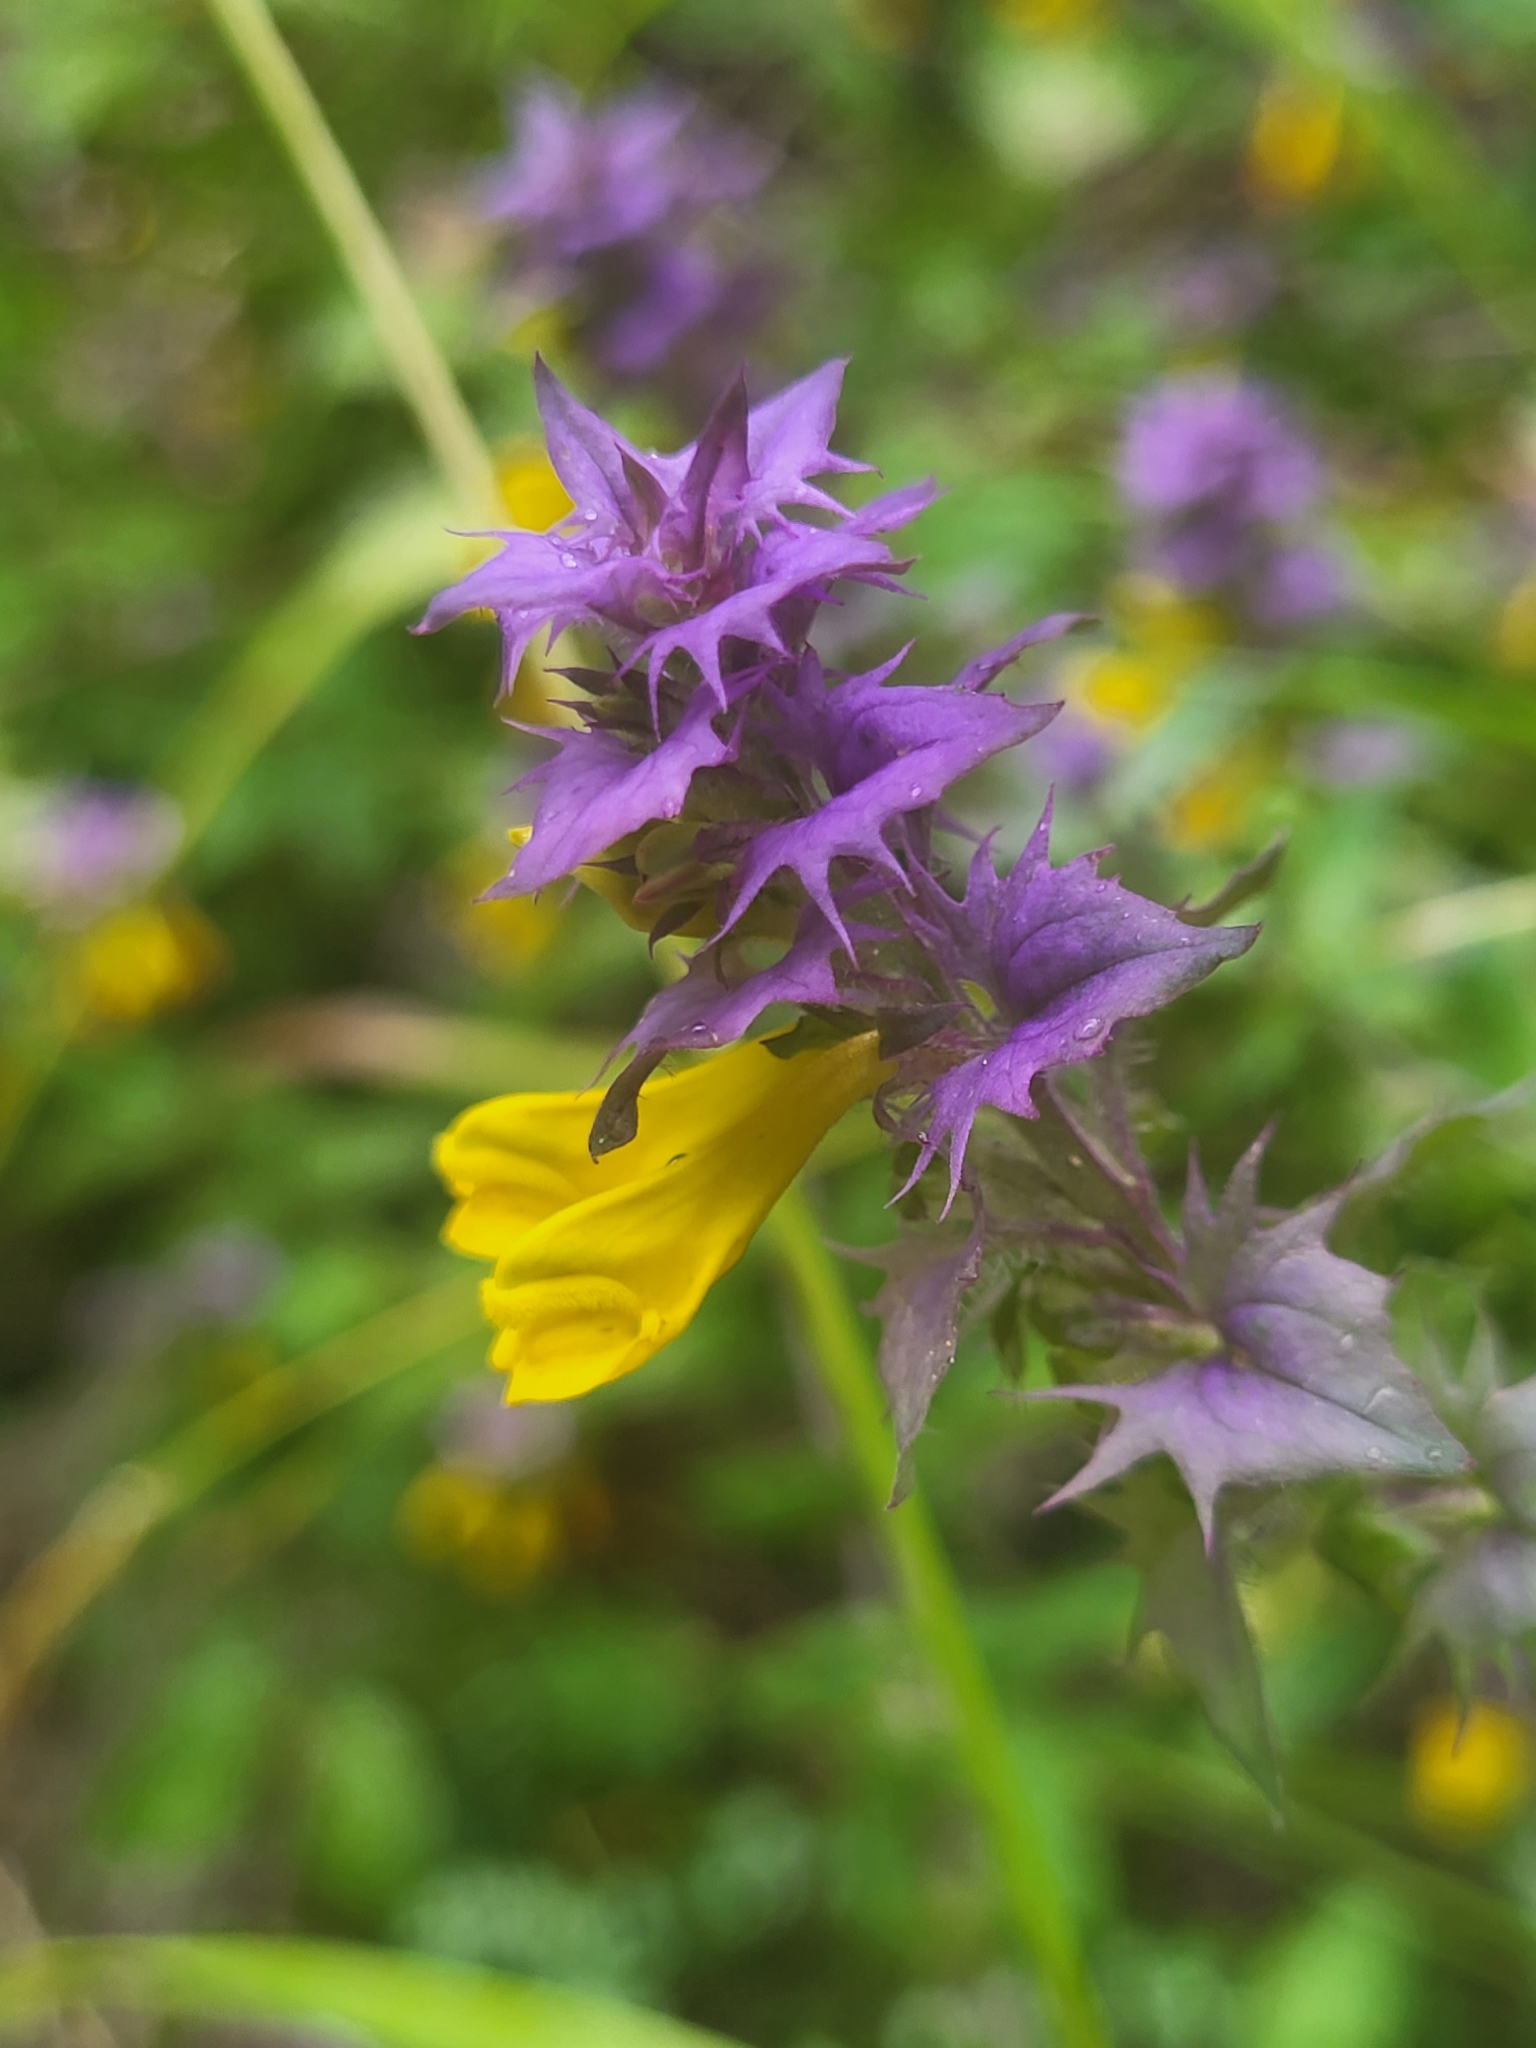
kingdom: Plantae
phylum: Tracheophyta
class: Magnoliopsida
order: Lamiales
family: Orobanchaceae
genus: Melampyrum
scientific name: Melampyrum nemorosum
